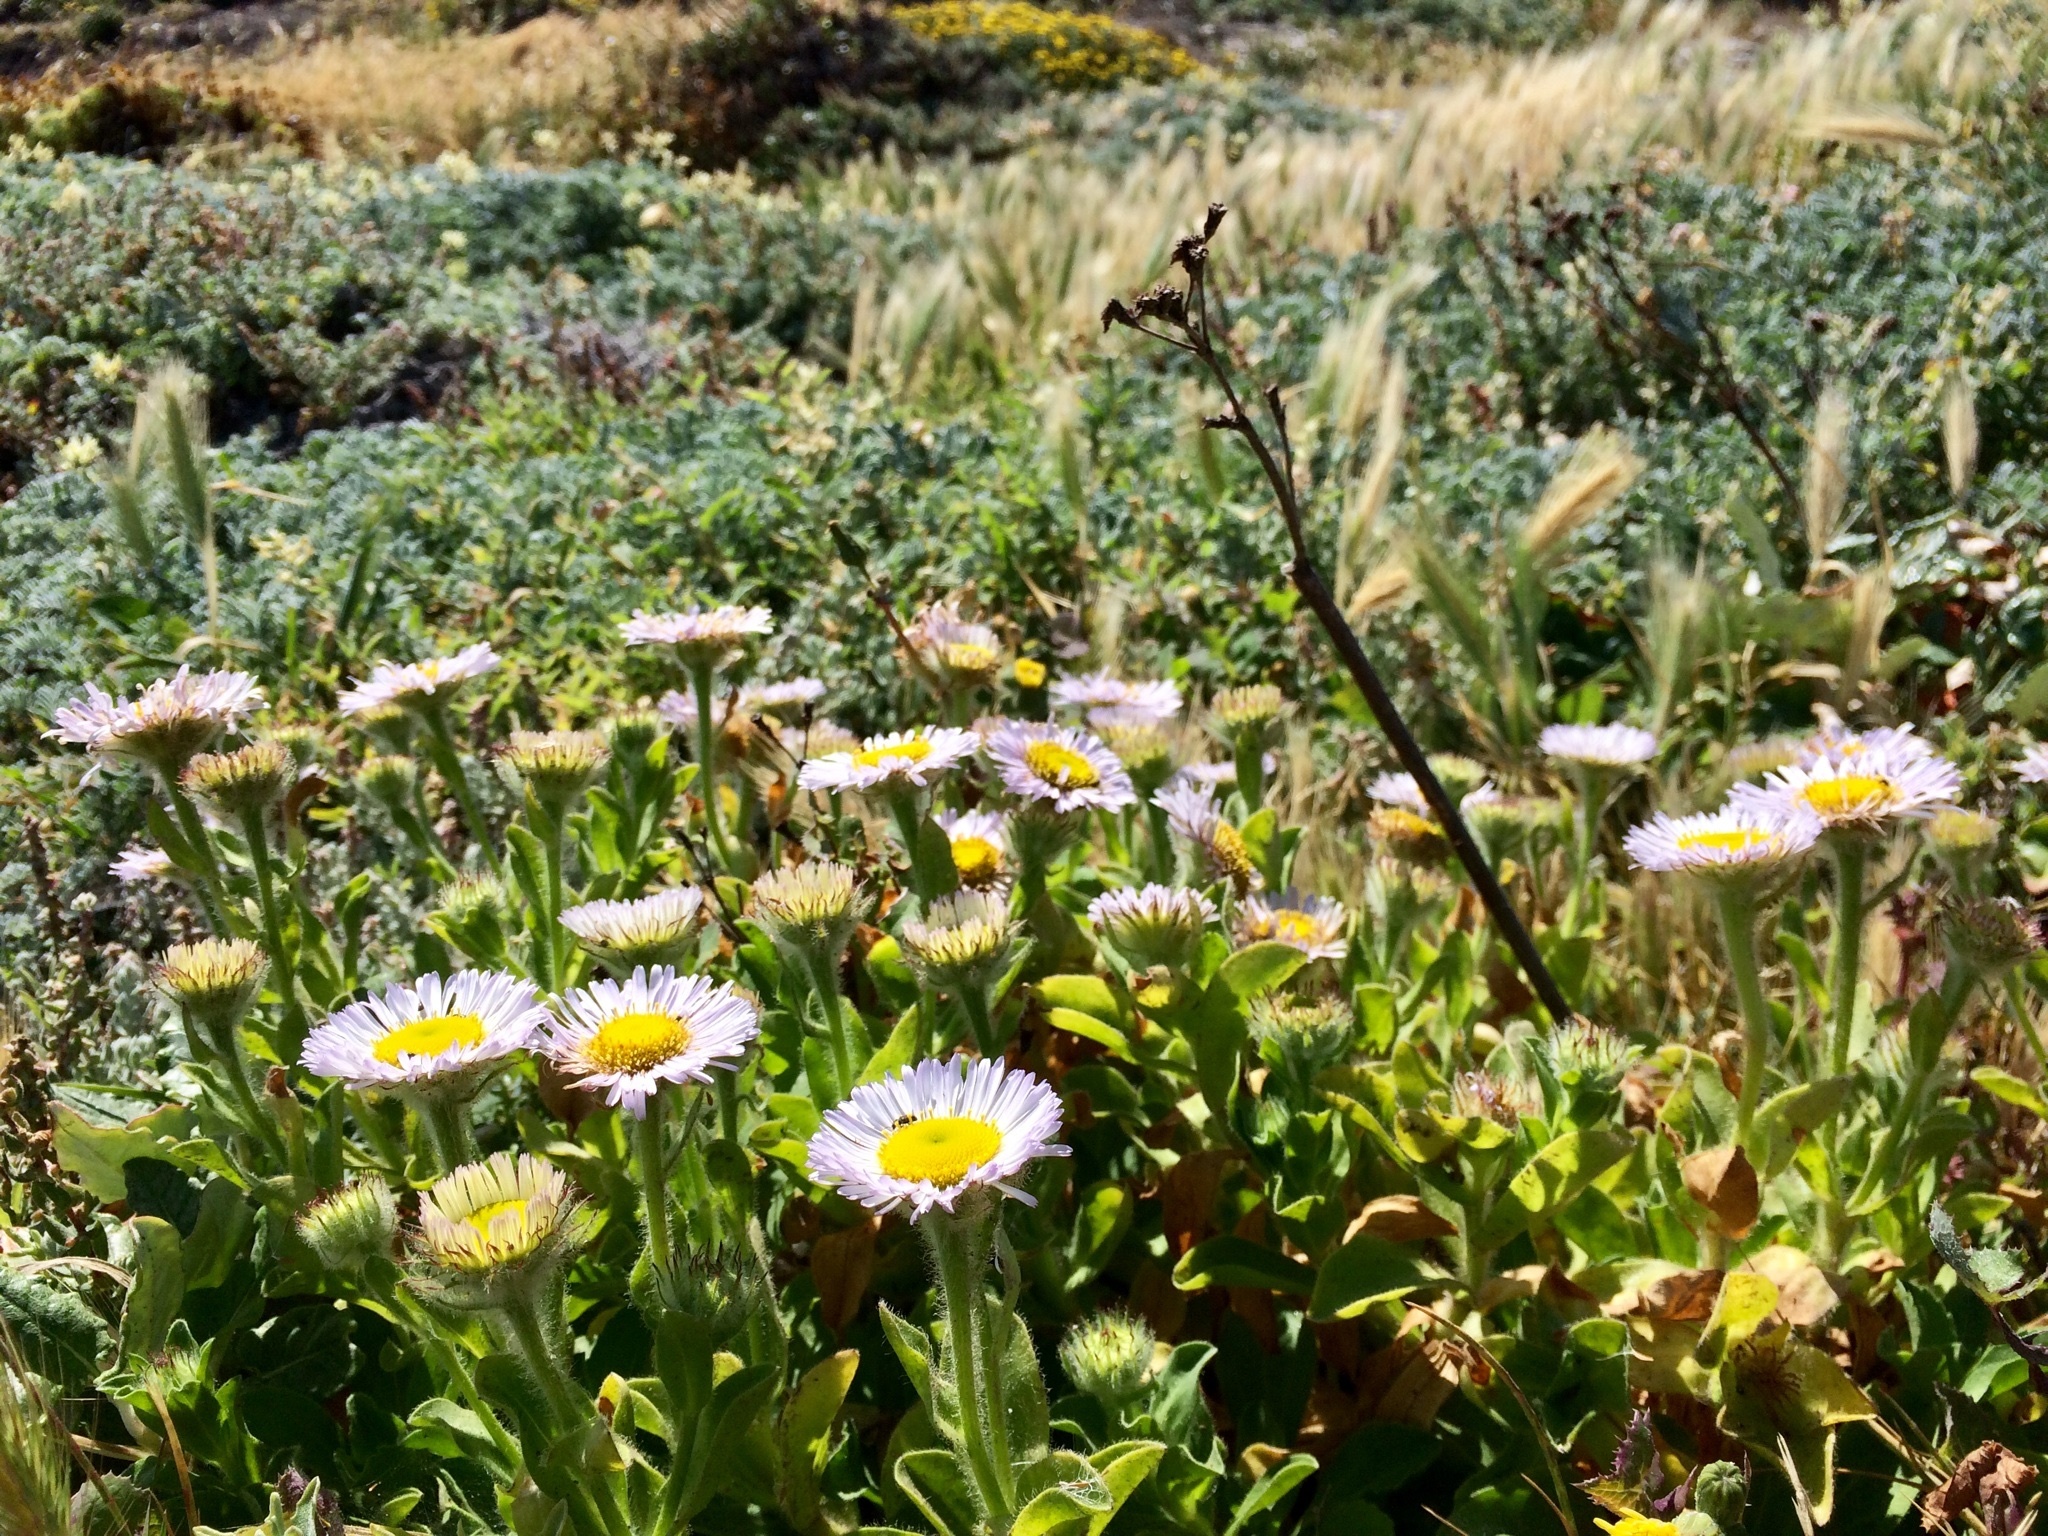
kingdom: Plantae
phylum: Tracheophyta
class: Magnoliopsida
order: Asterales
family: Asteraceae
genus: Erigeron
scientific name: Erigeron glaucus
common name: Seaside daisy
